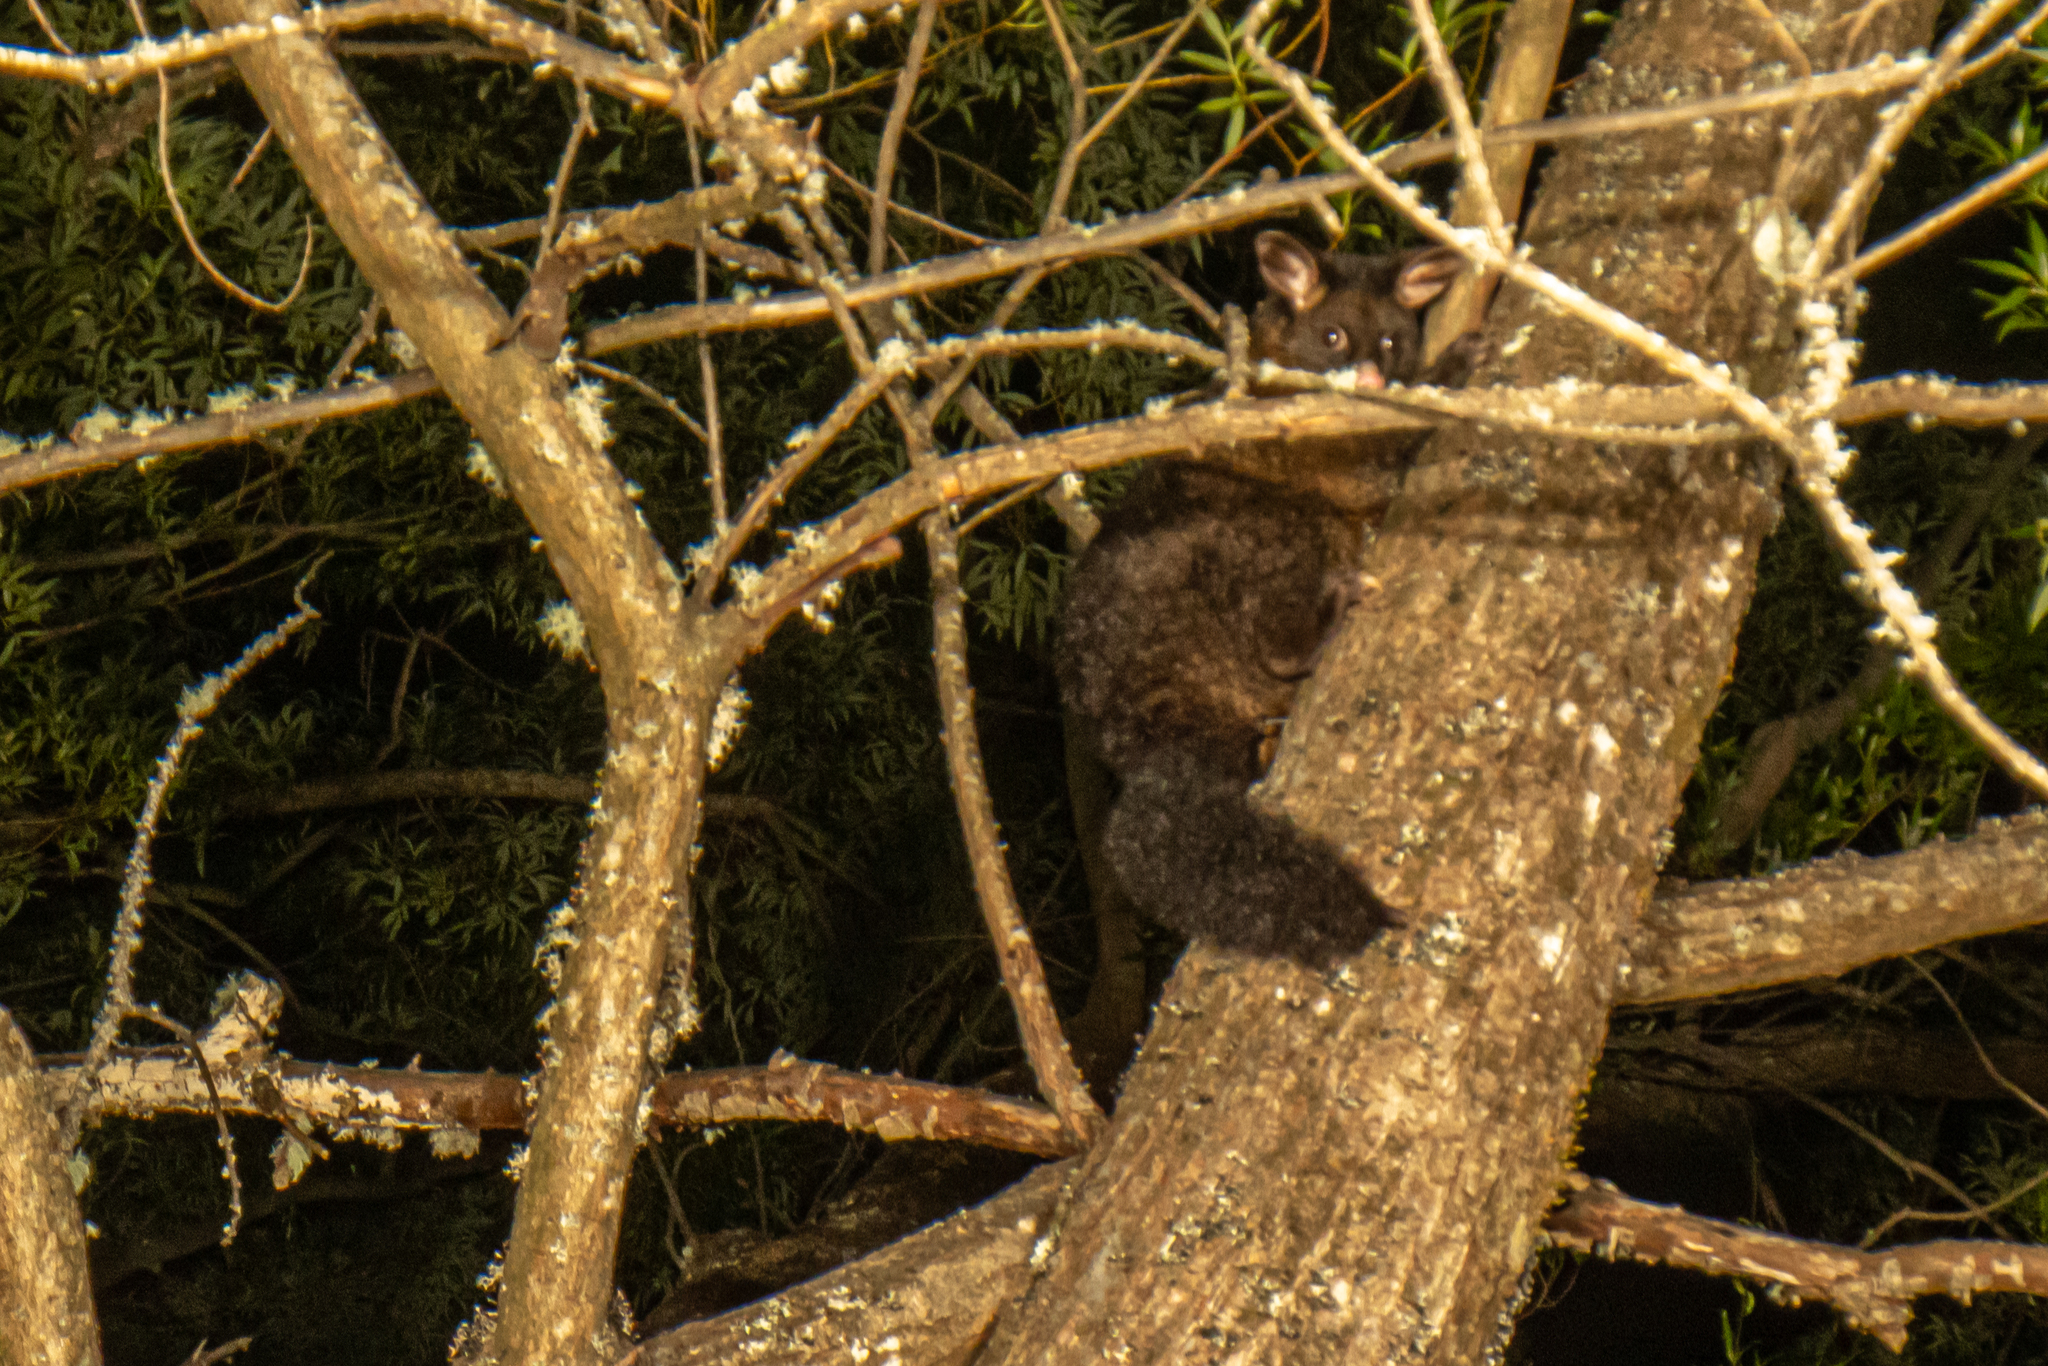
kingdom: Animalia
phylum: Chordata
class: Mammalia
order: Diprotodontia
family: Phalangeridae
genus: Trichosurus
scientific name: Trichosurus vulpecula
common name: Common brushtail
